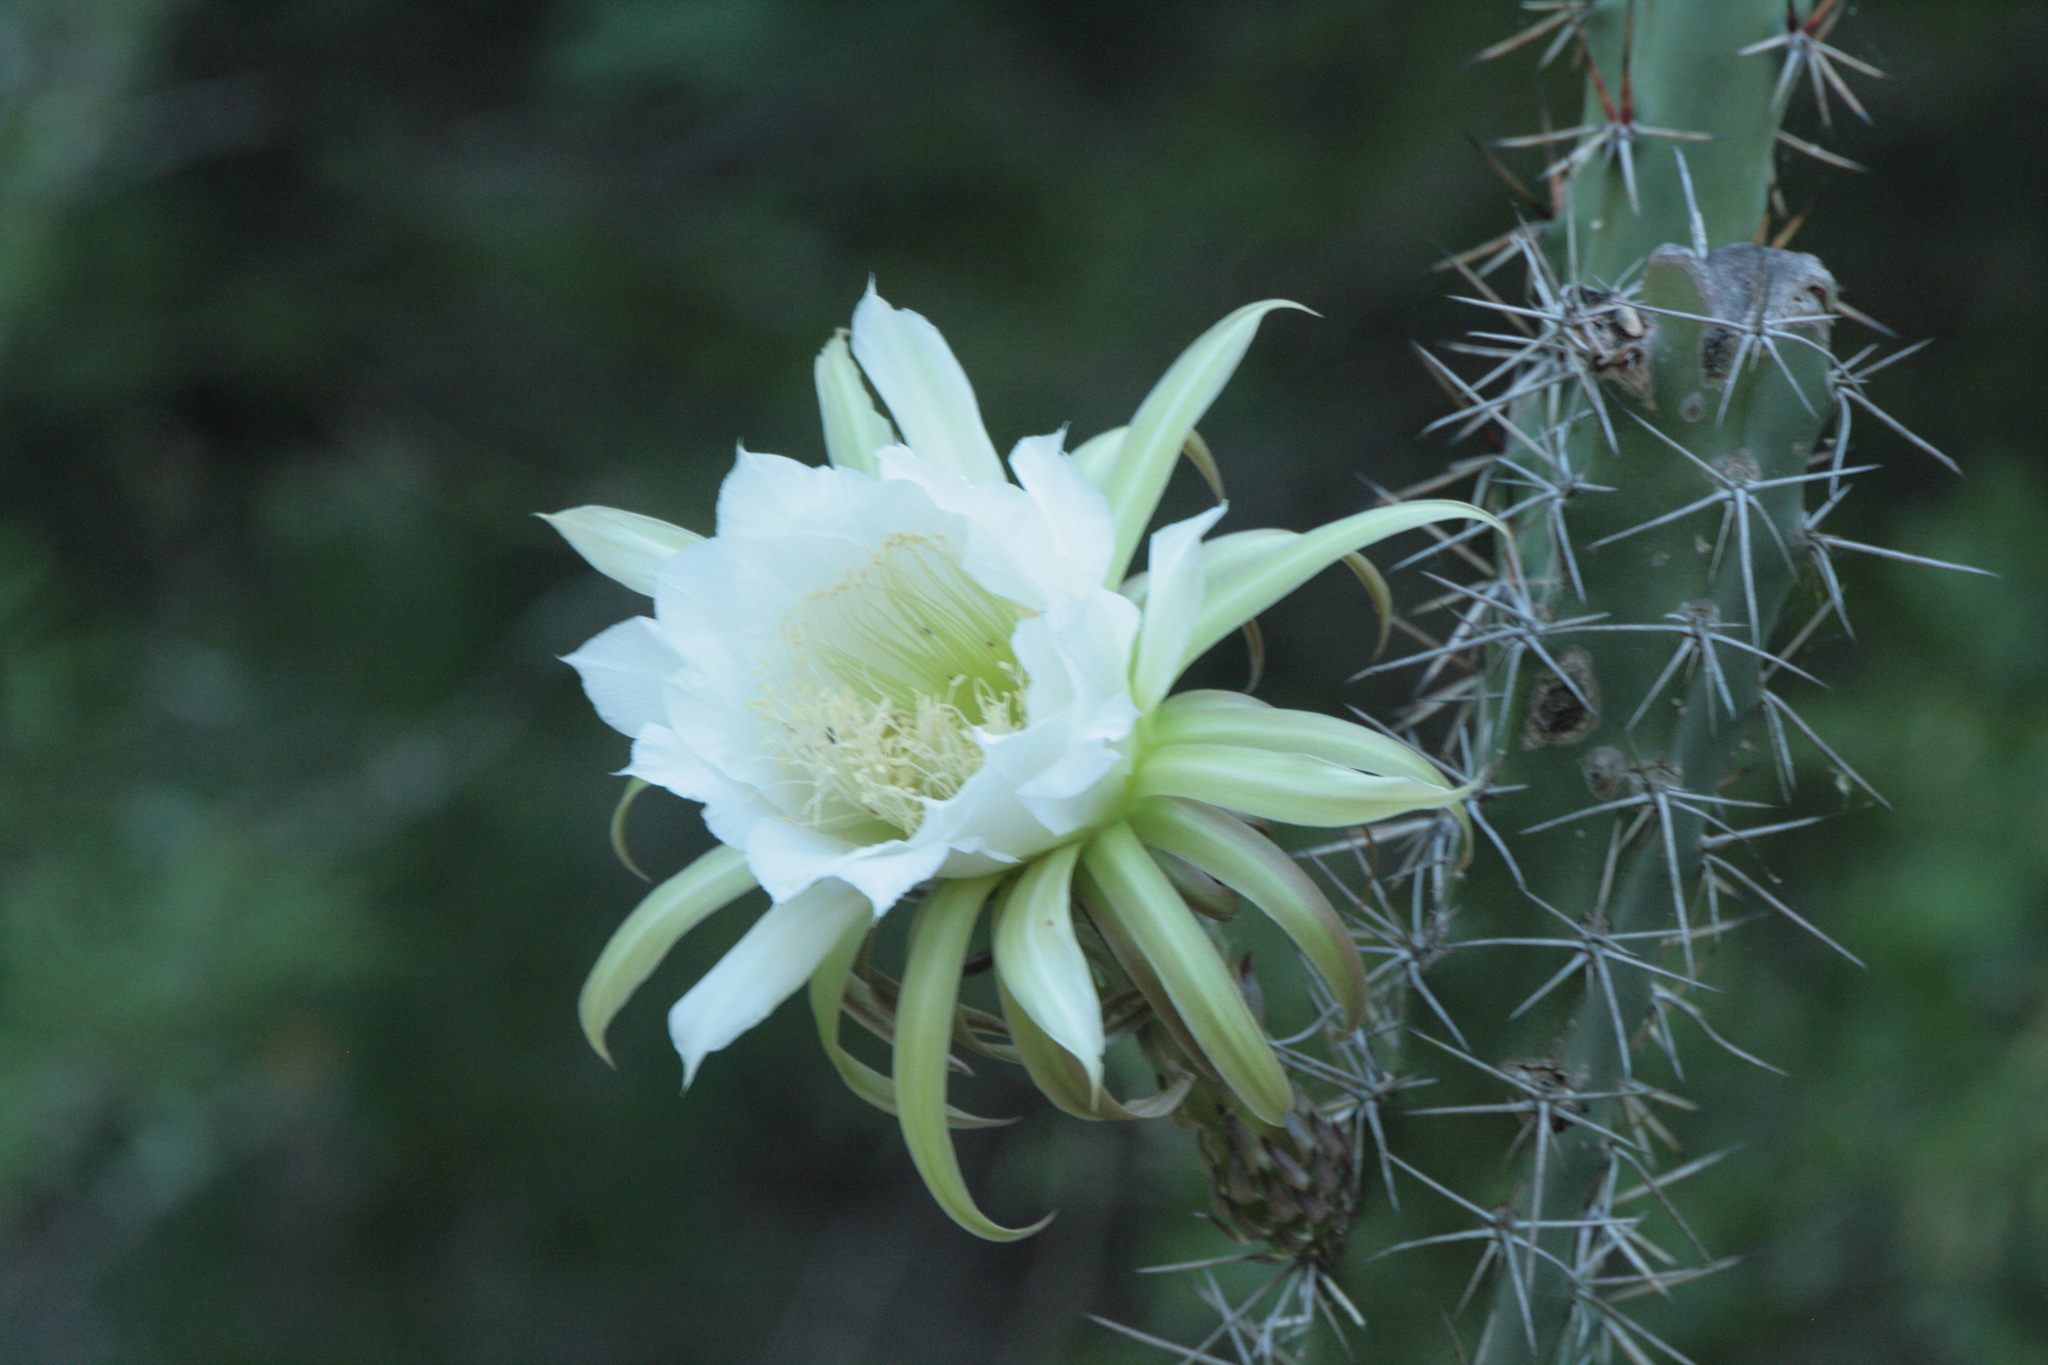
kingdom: Plantae
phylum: Tracheophyta
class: Magnoliopsida
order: Caryophyllales
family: Cactaceae
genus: Harrisia
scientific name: Harrisia pomanensis
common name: Midnight-lady
